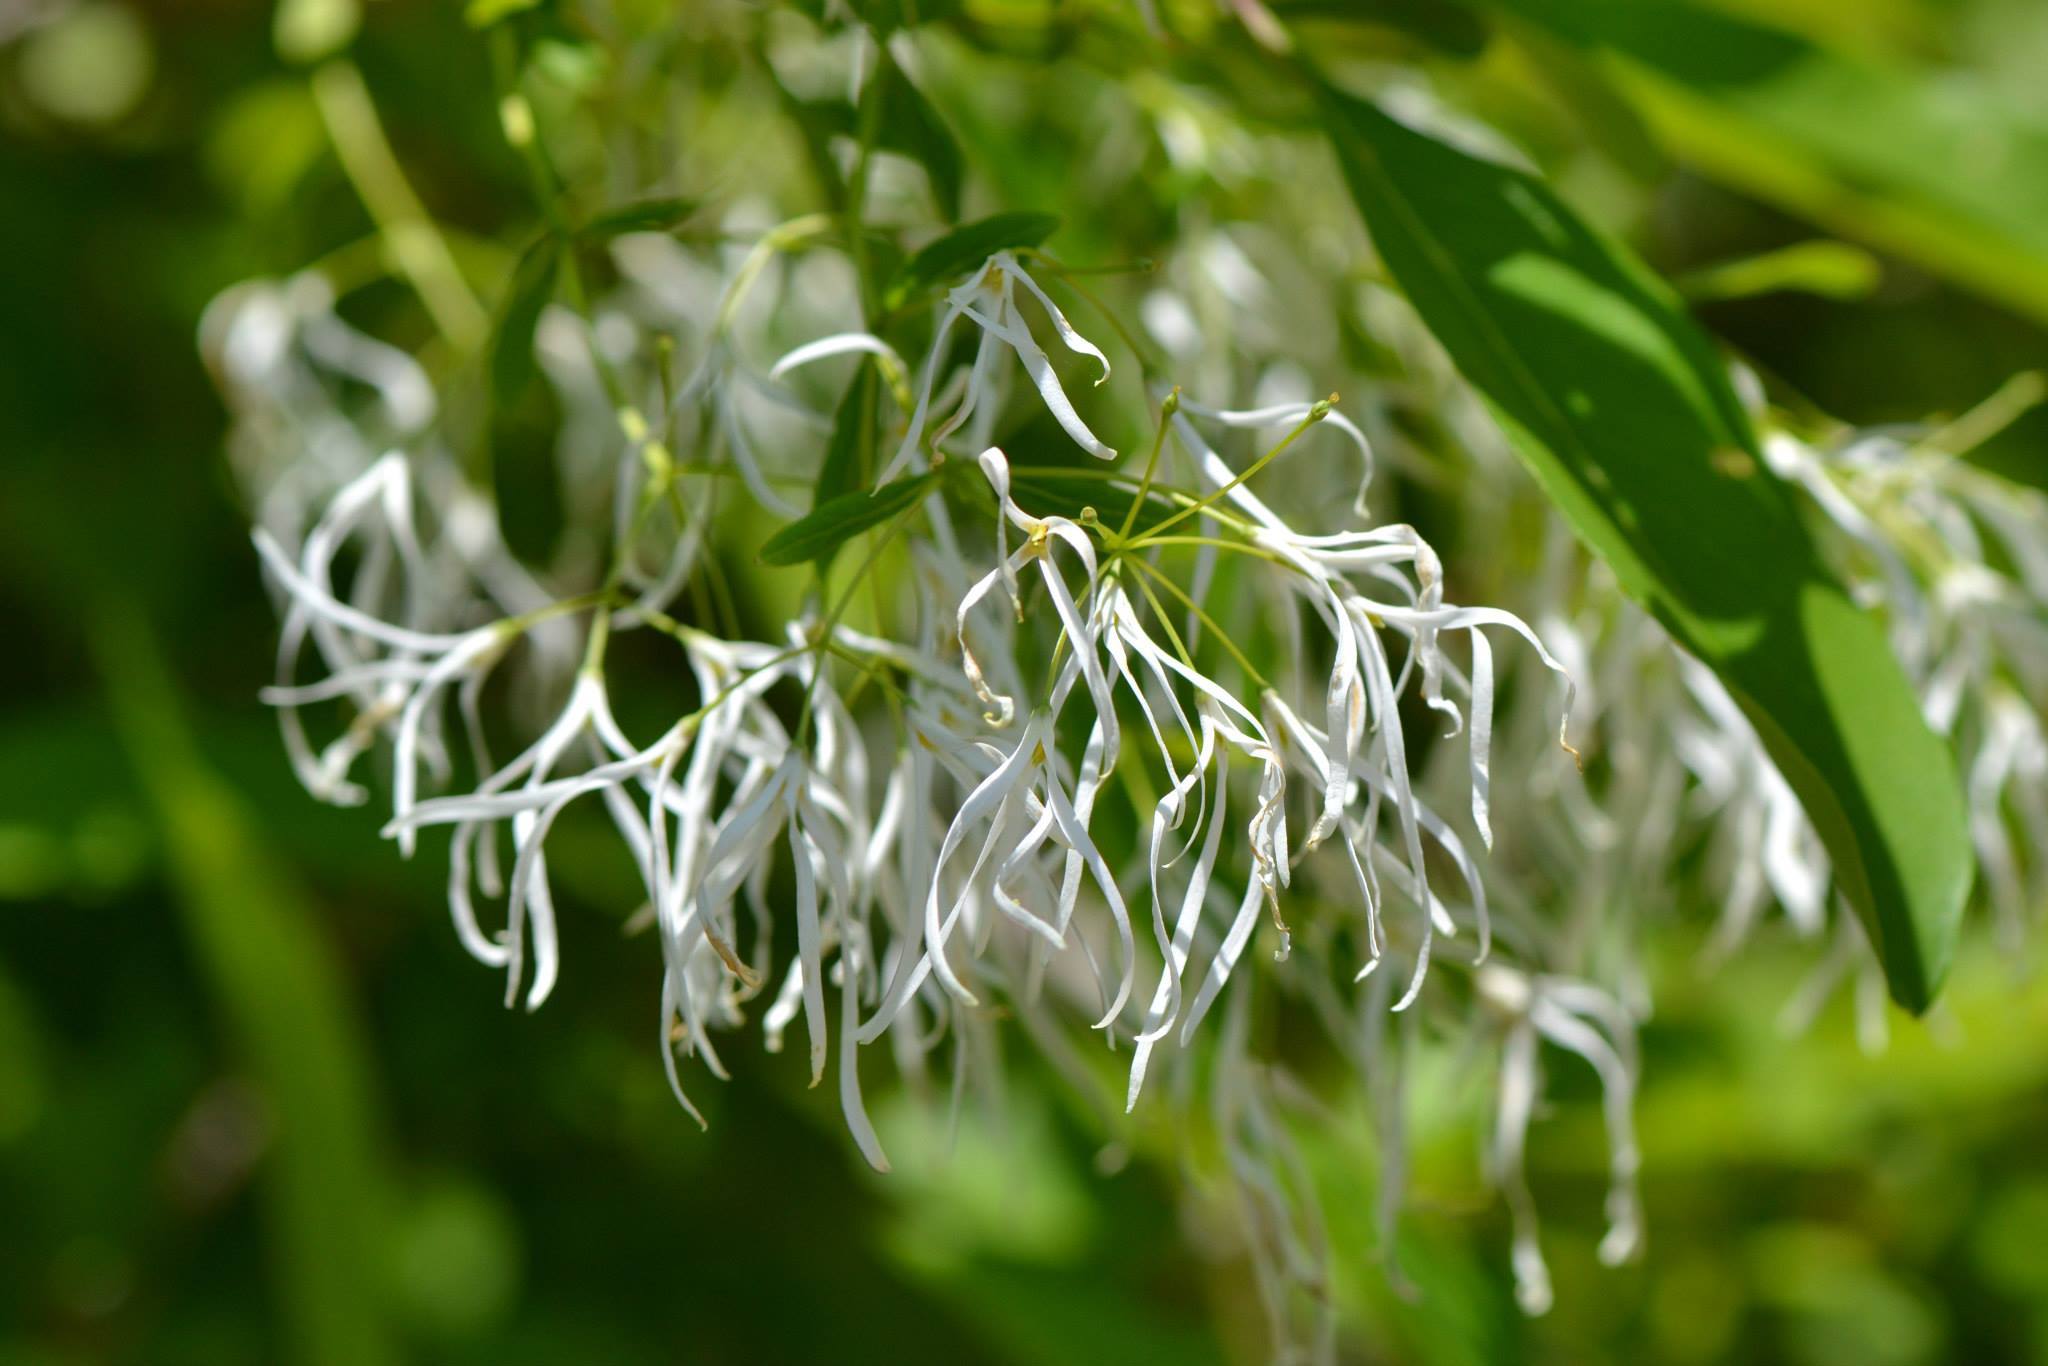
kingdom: Plantae
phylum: Tracheophyta
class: Magnoliopsida
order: Lamiales
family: Oleaceae
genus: Chionanthus
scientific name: Chionanthus virginicus
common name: American fringetree
